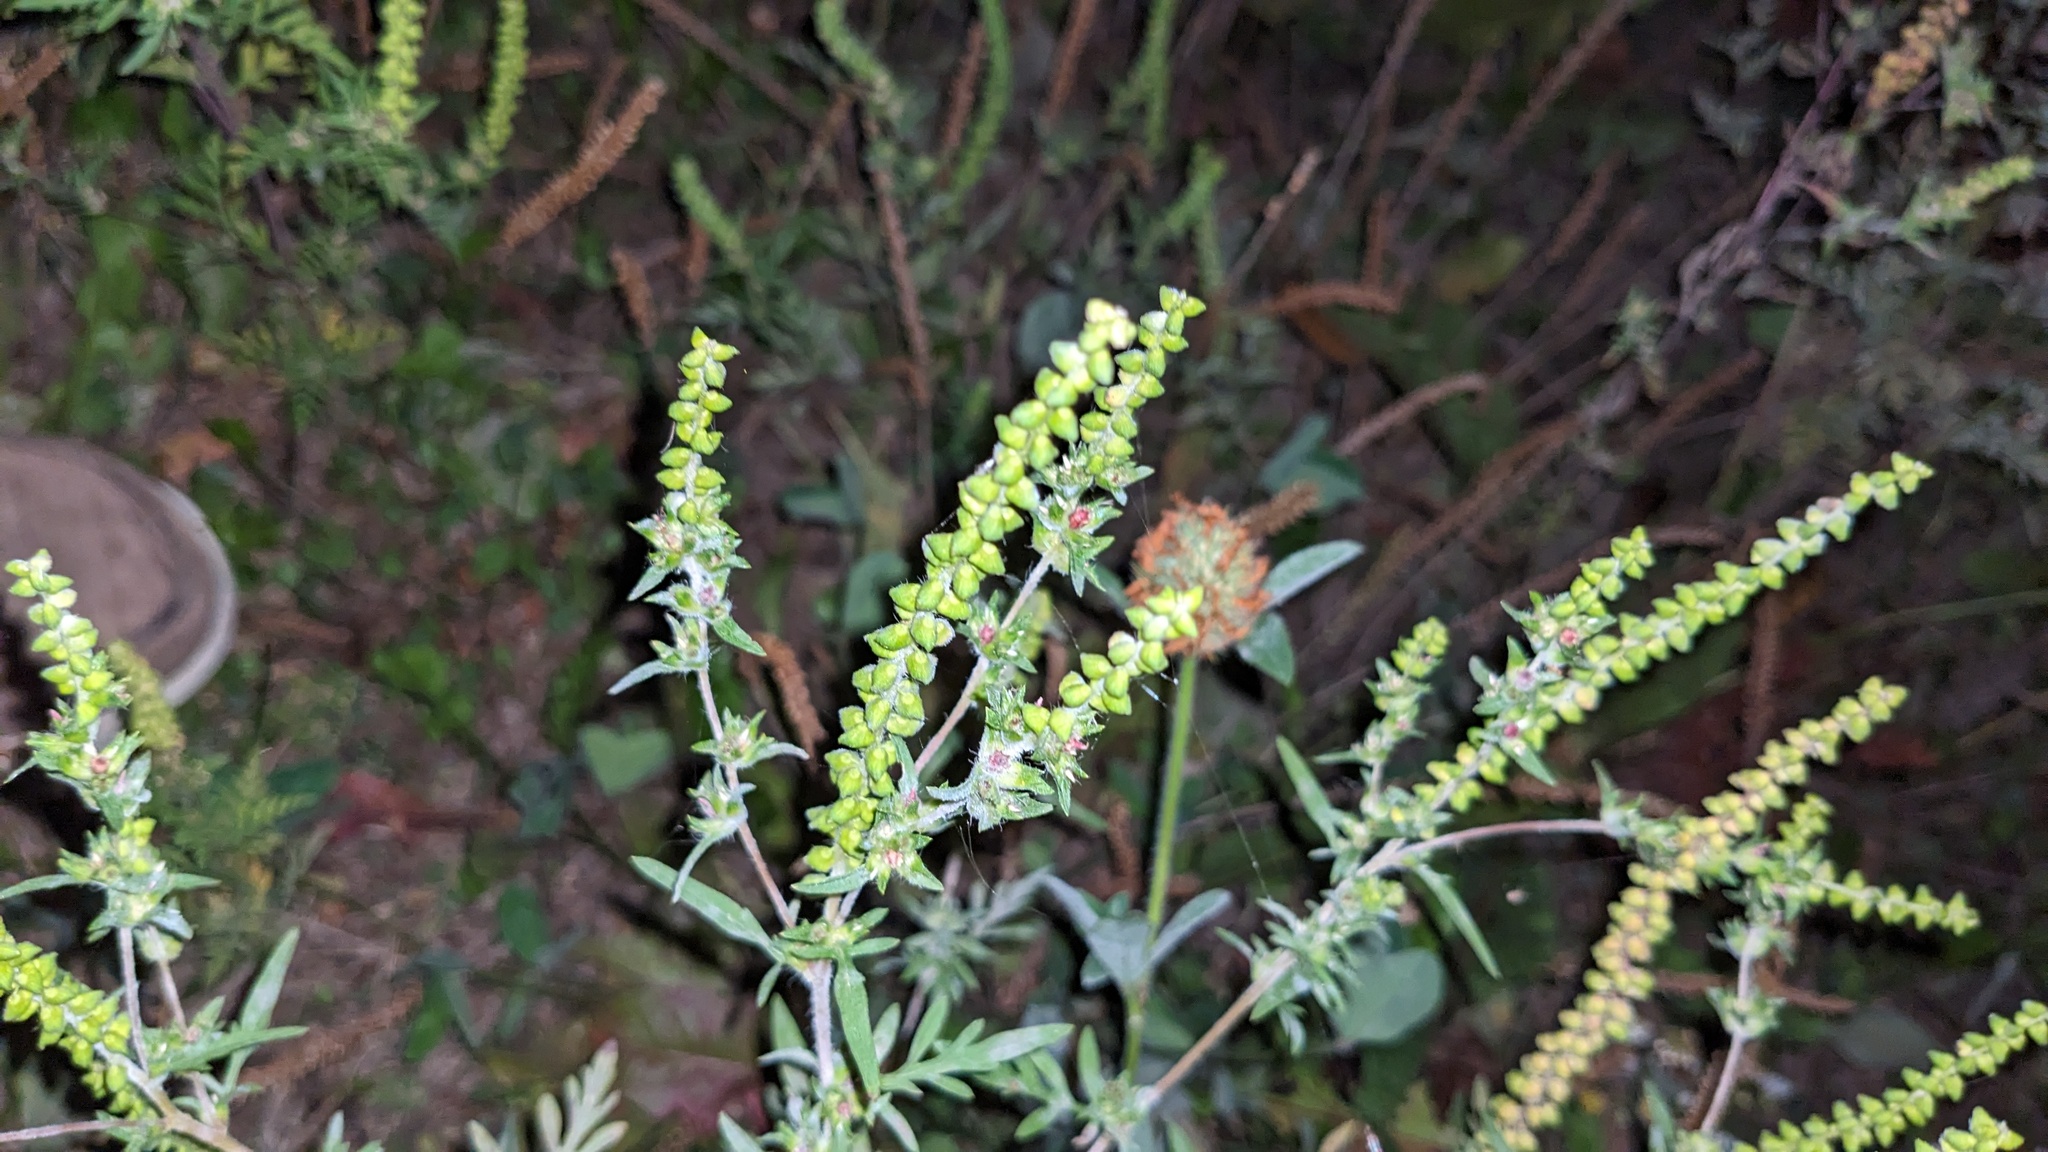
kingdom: Plantae
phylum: Tracheophyta
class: Magnoliopsida
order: Asterales
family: Asteraceae
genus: Ambrosia
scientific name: Ambrosia artemisiifolia
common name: Annual ragweed
